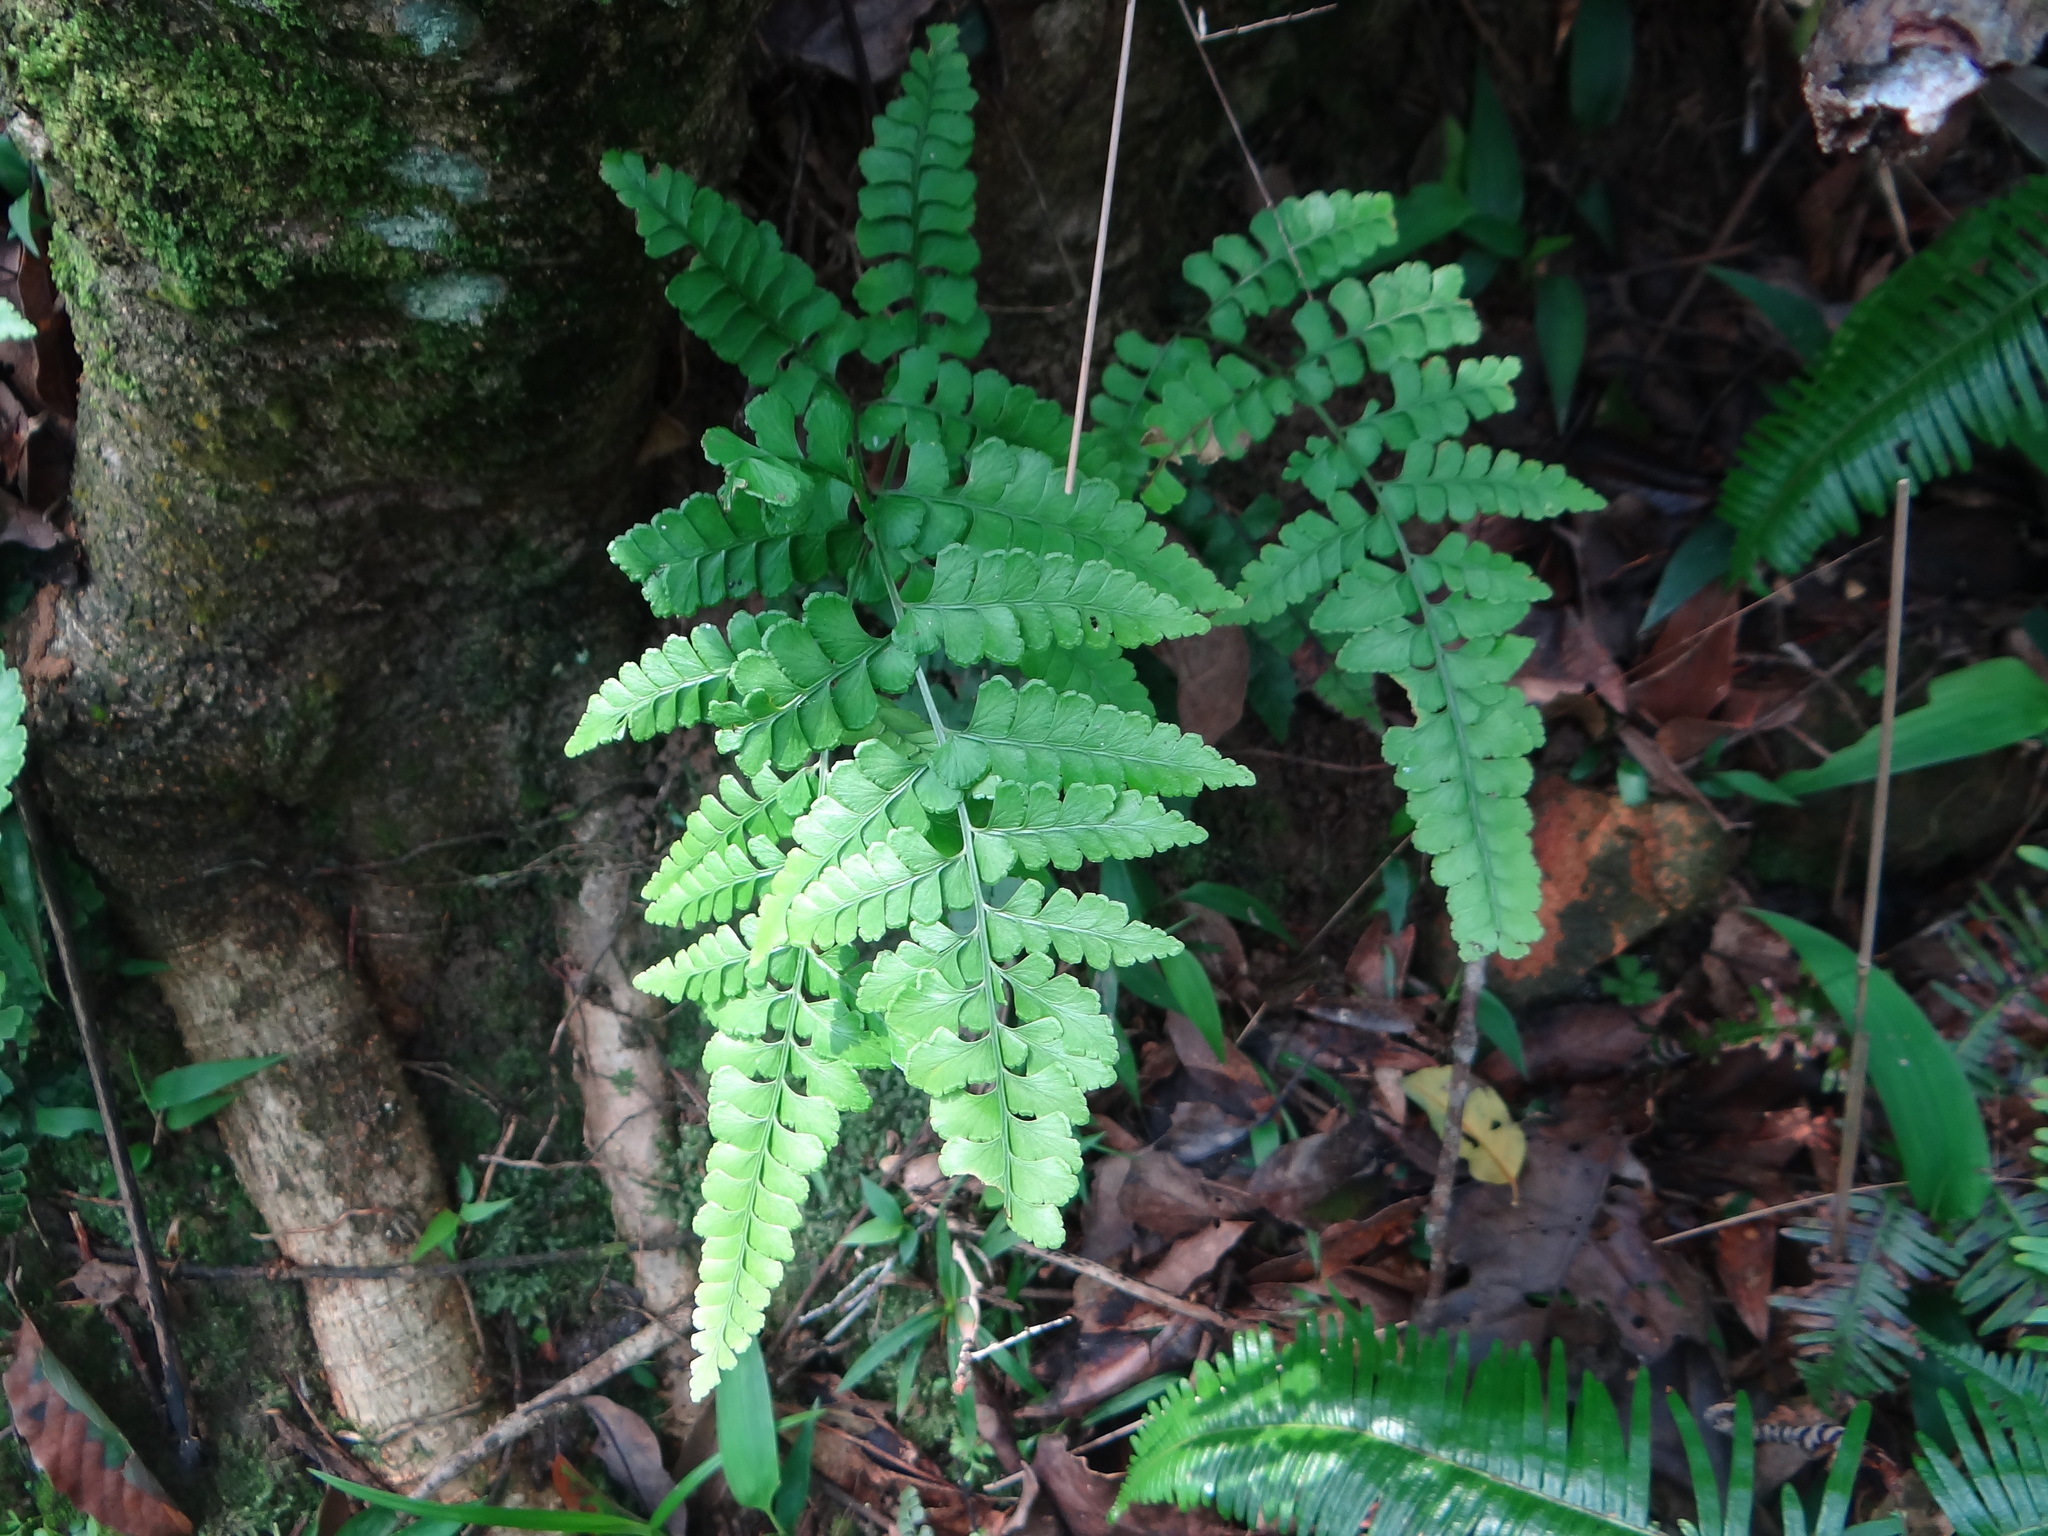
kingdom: Plantae
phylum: Tracheophyta
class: Polypodiopsida
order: Polypodiales
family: Lindsaeaceae
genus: Lindsaea
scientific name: Lindsaea bonii
